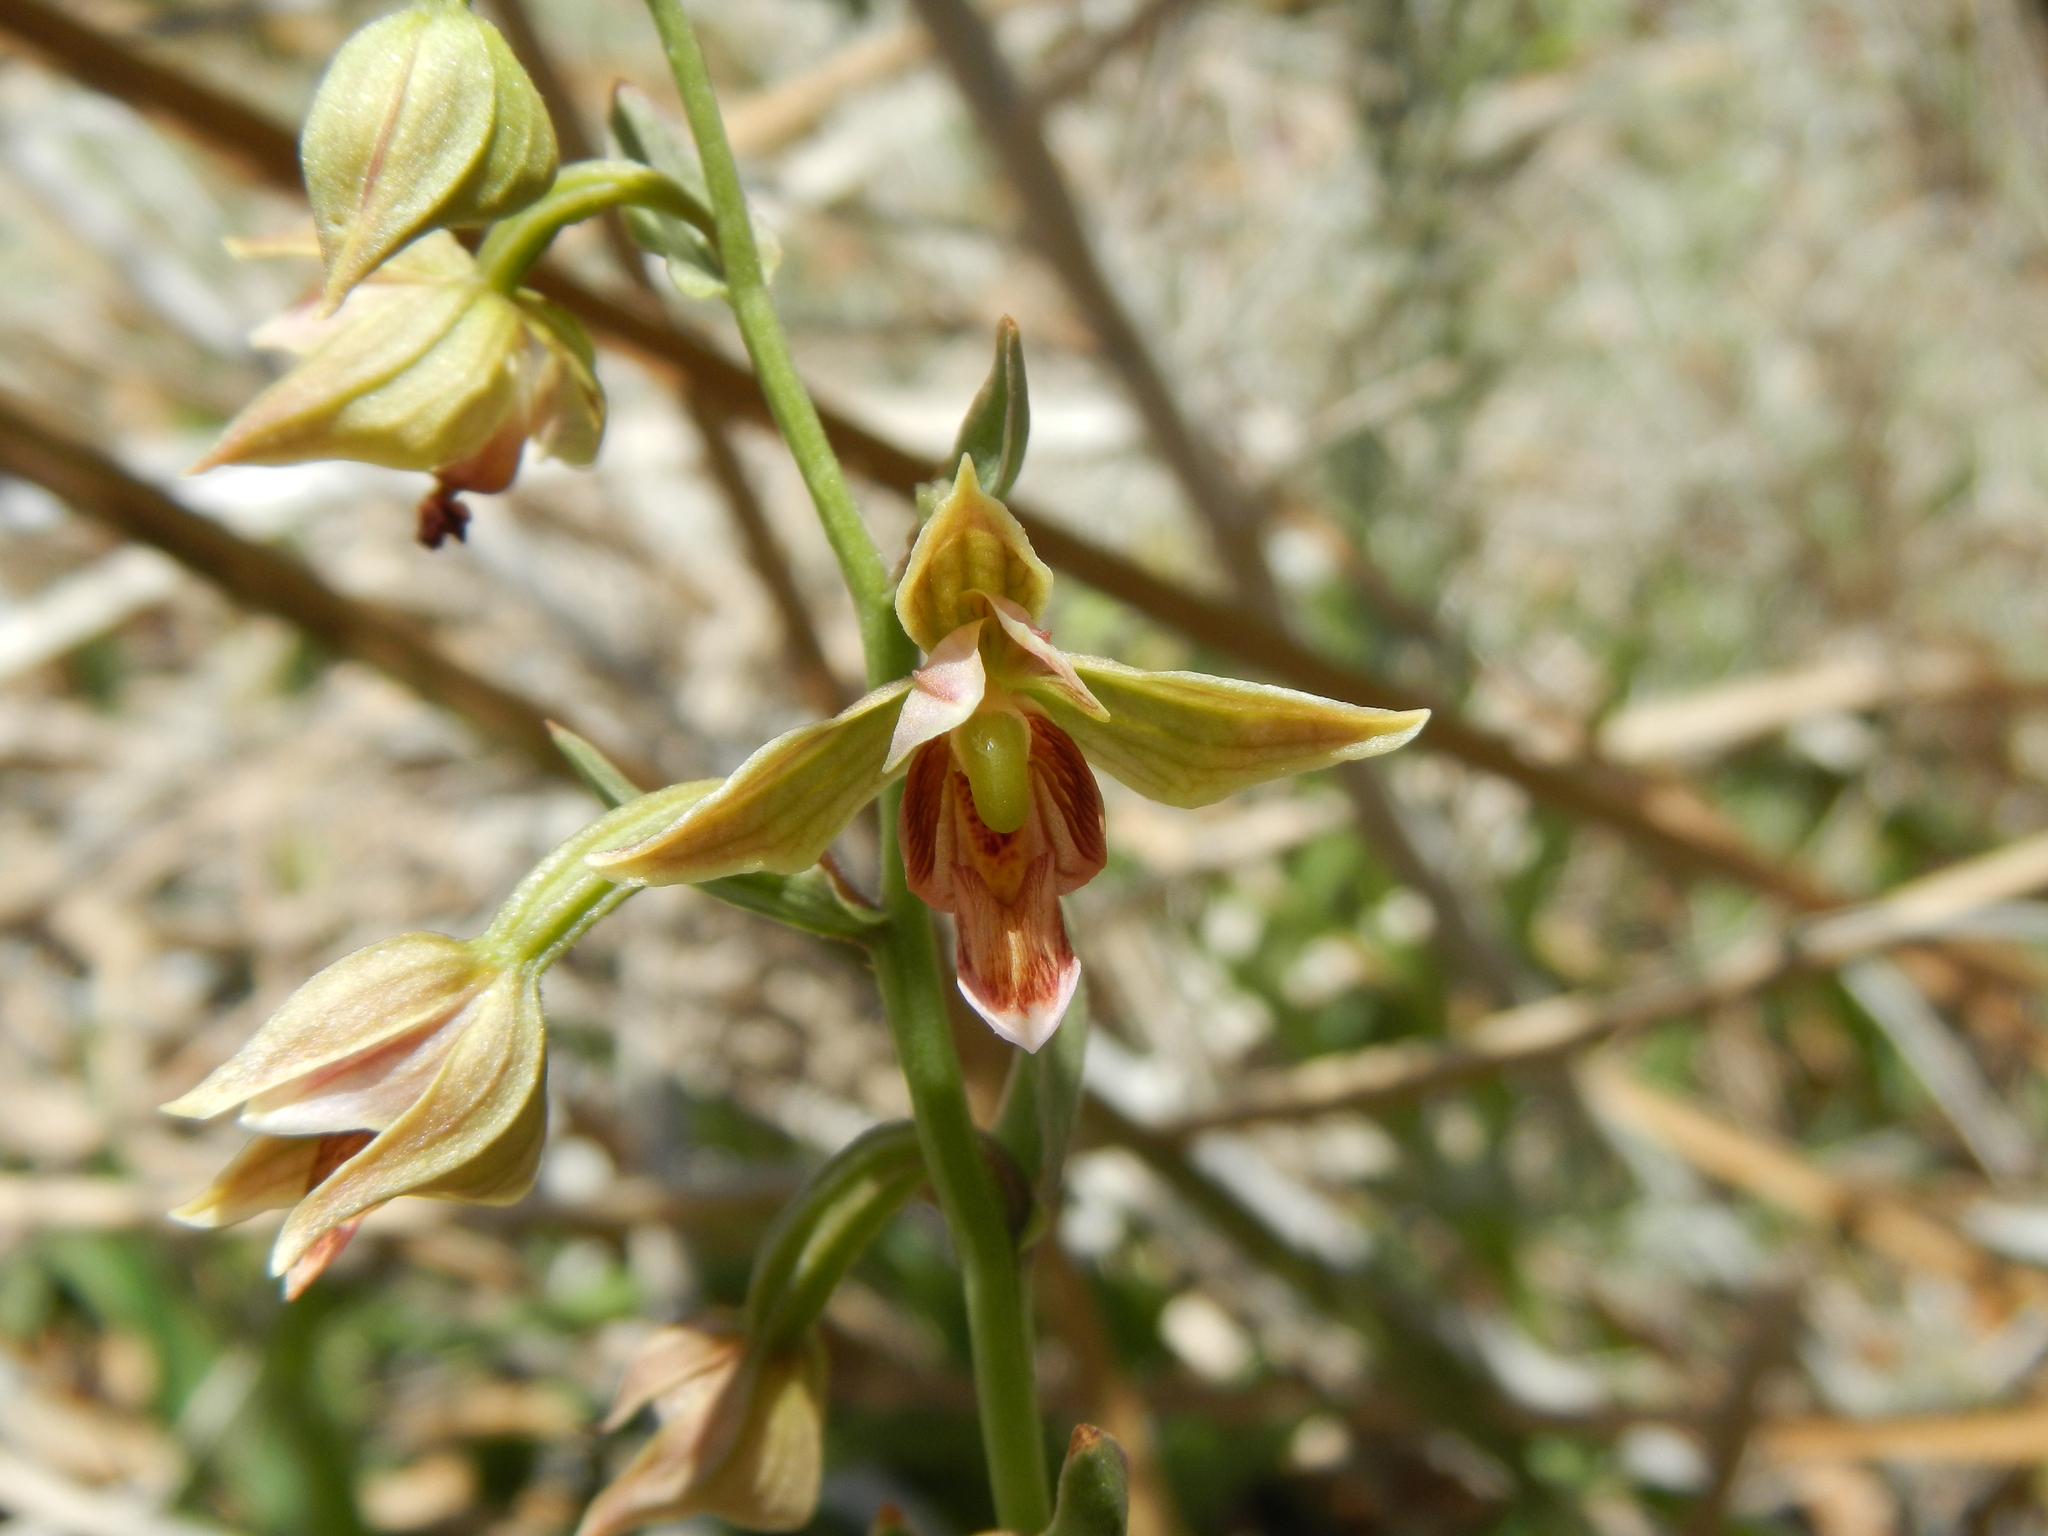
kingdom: Plantae
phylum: Tracheophyta
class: Liliopsida
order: Asparagales
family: Orchidaceae
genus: Epipactis
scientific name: Epipactis gigantea
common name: Chatterbox
